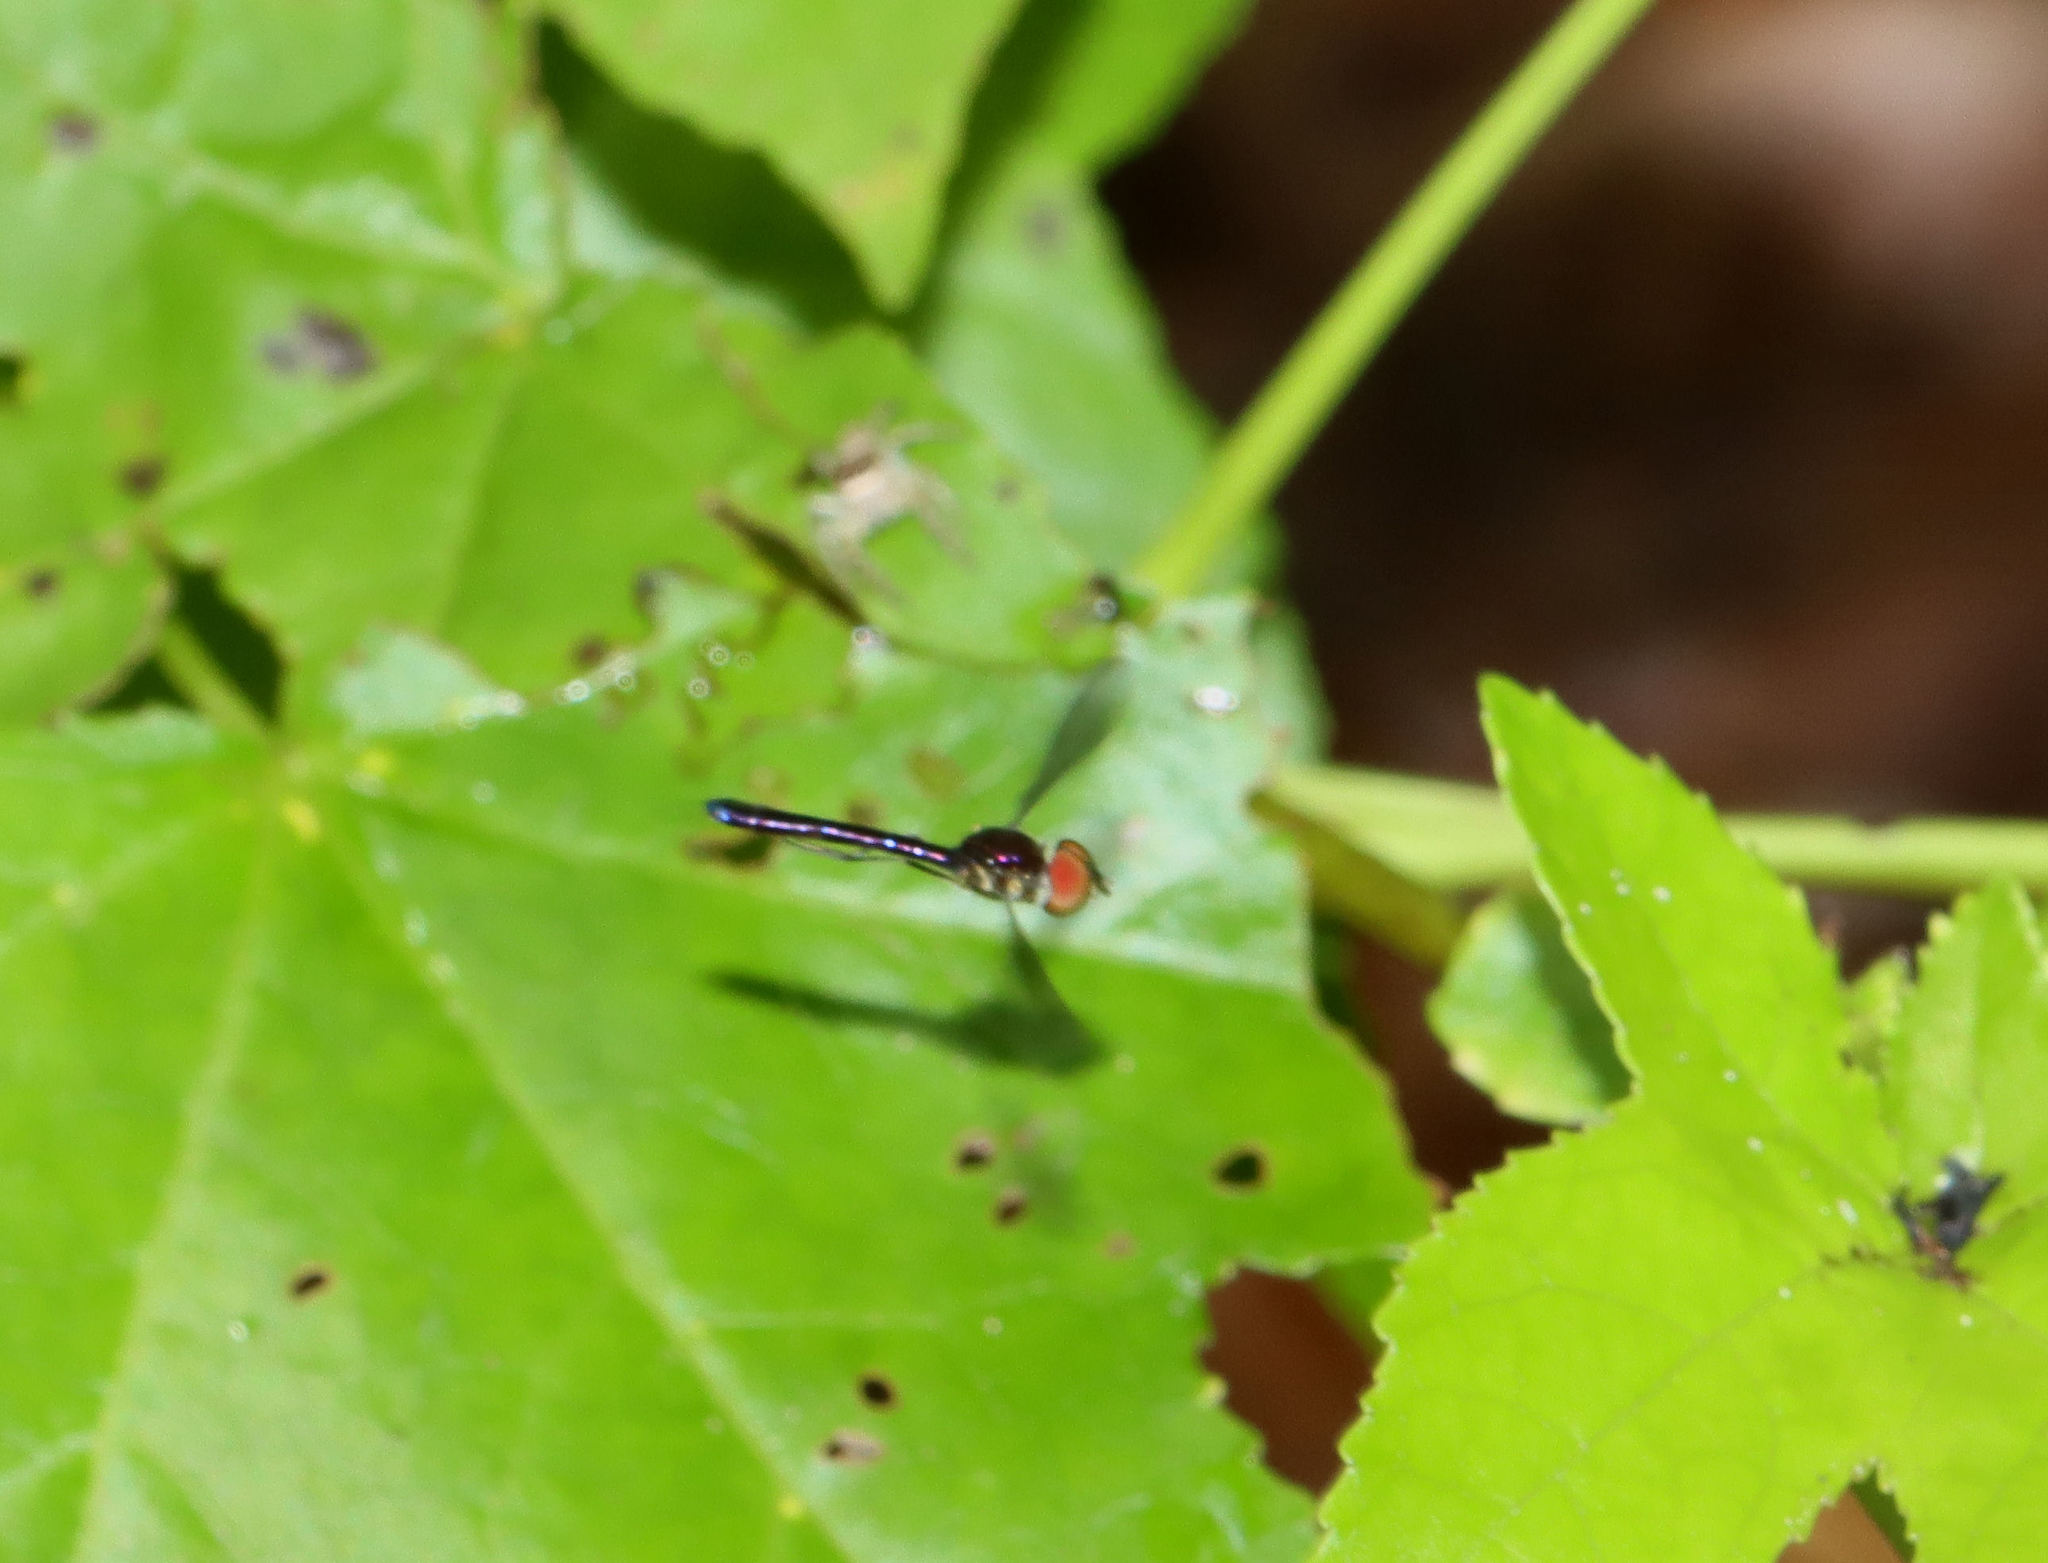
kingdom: Animalia
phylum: Arthropoda
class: Insecta
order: Diptera
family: Syrphidae
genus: Ocyptamus
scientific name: Ocyptamus fuscipennis
